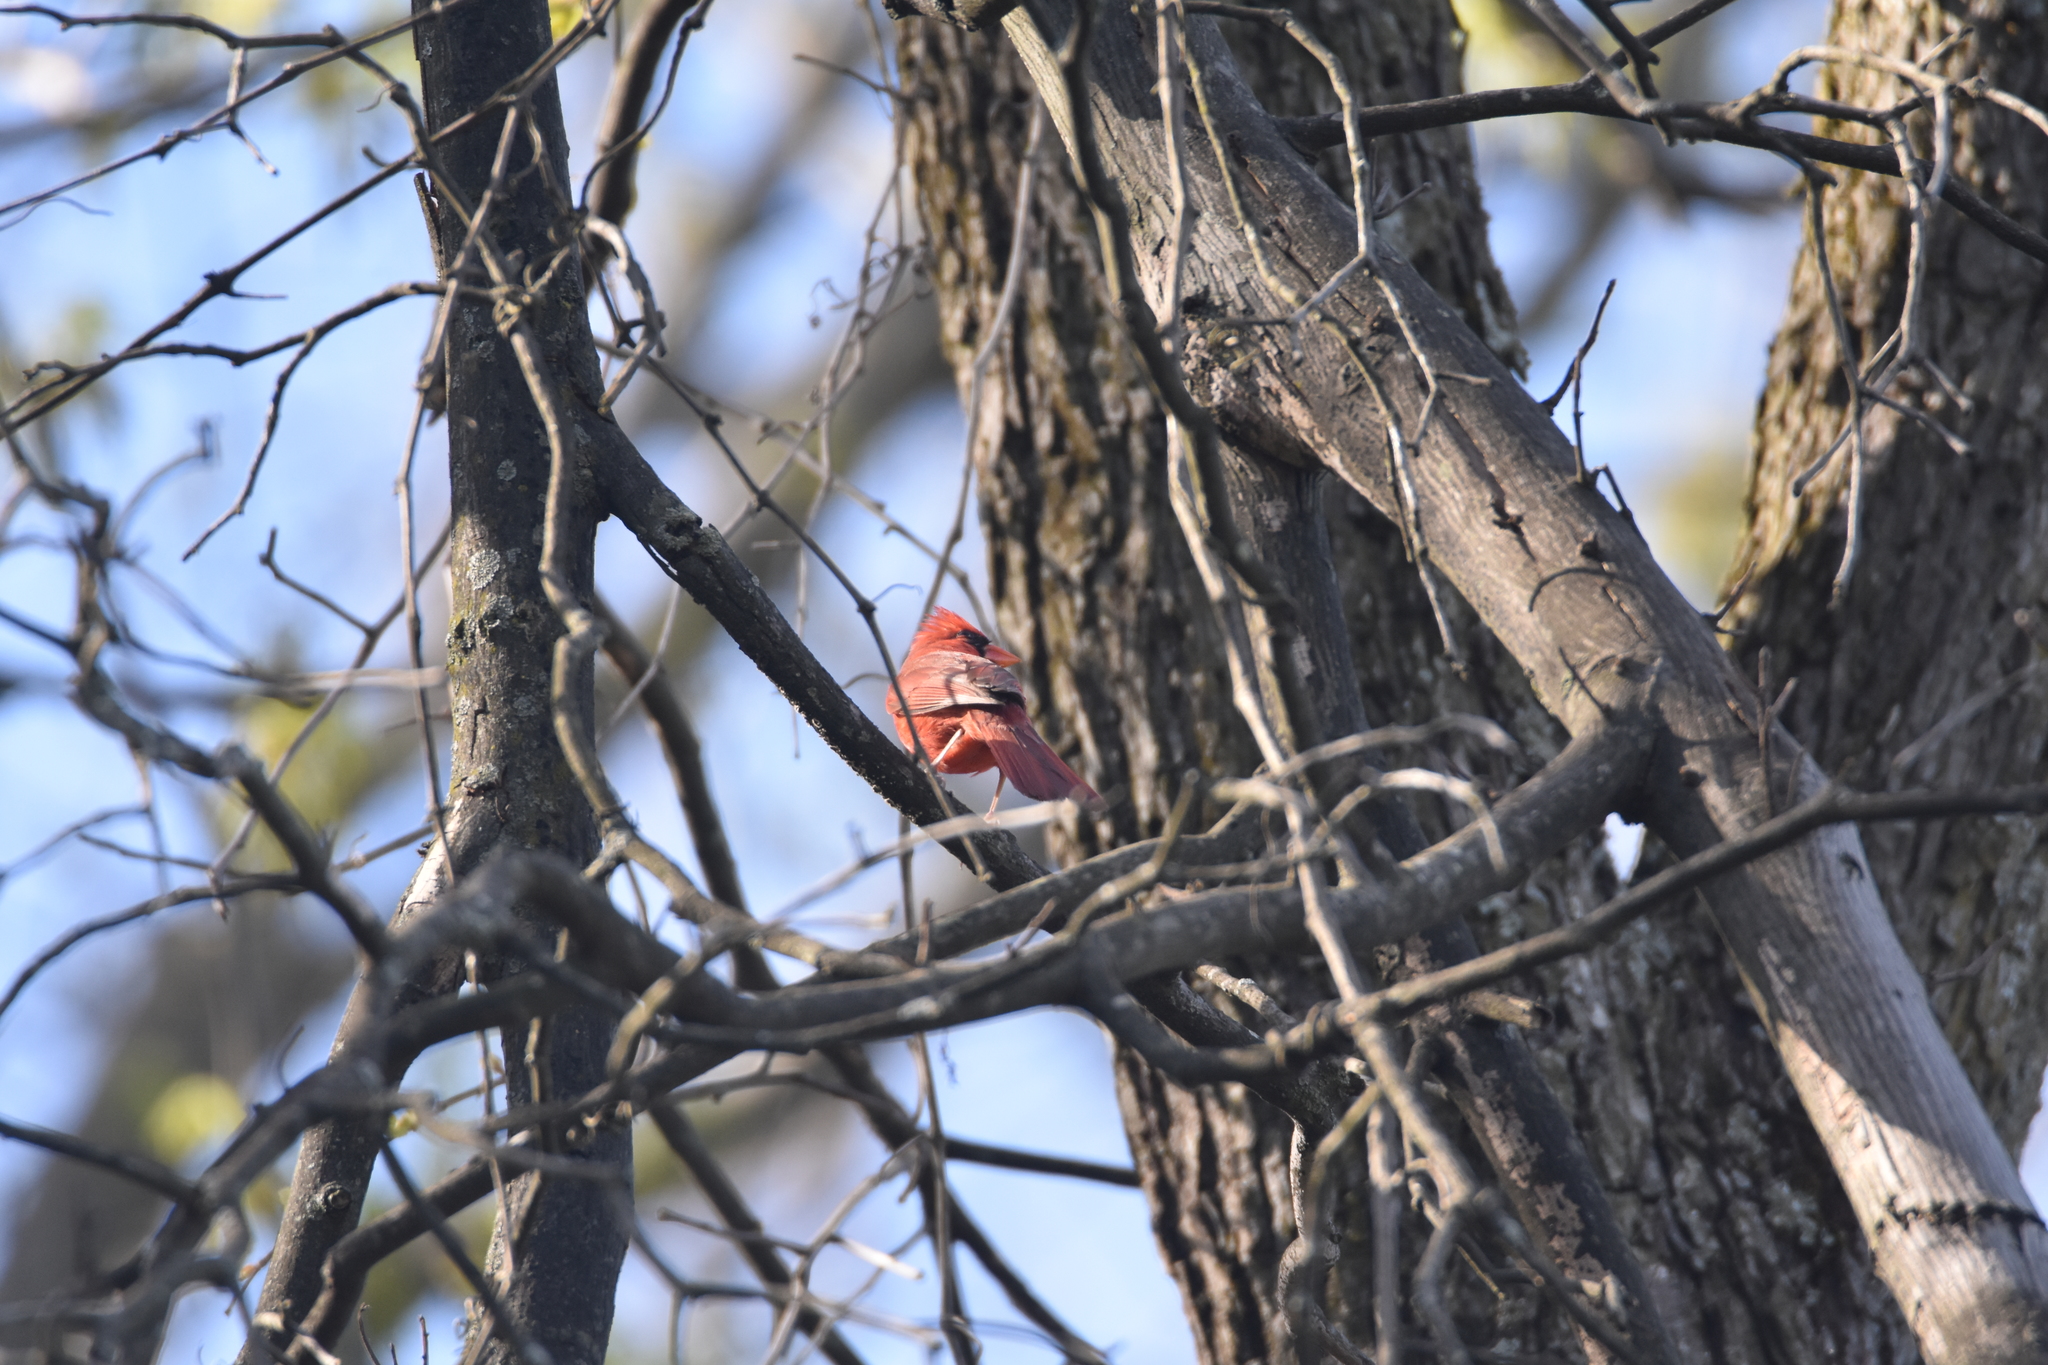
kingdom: Animalia
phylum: Chordata
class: Aves
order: Passeriformes
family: Cardinalidae
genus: Cardinalis
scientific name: Cardinalis cardinalis
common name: Northern cardinal
